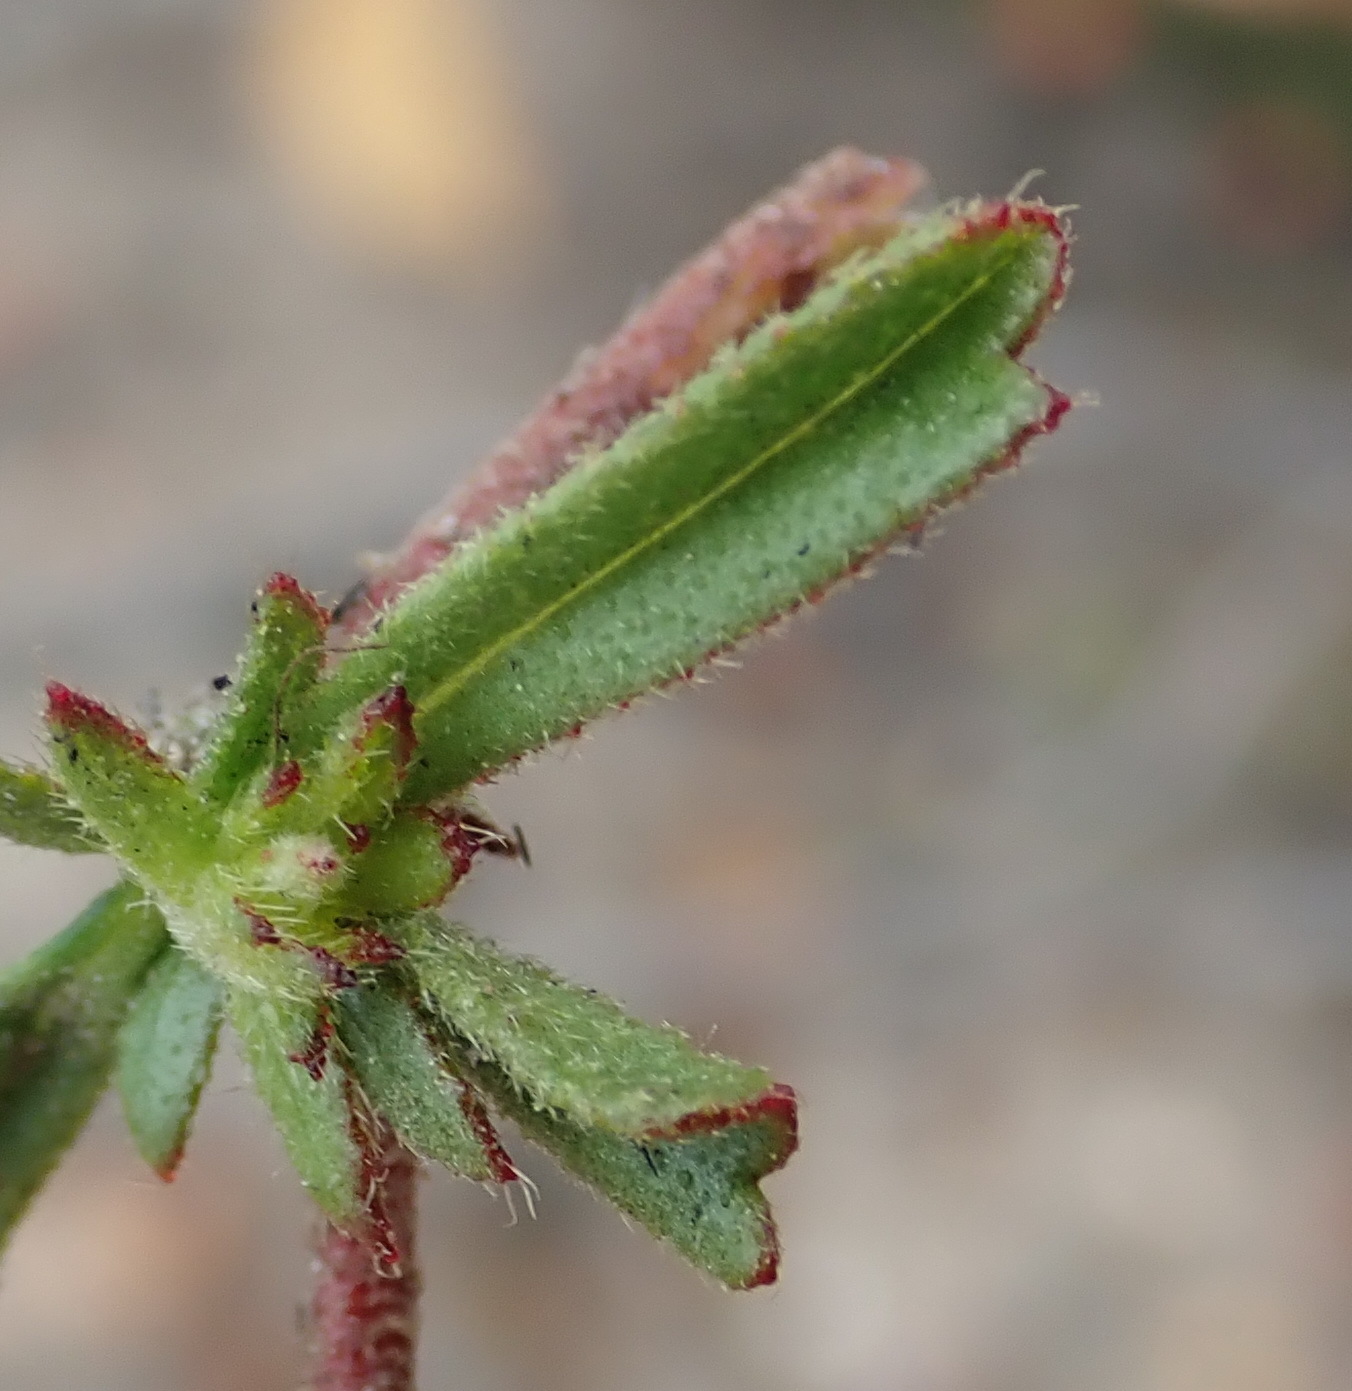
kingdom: Plantae
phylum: Tracheophyta
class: Magnoliopsida
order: Malvales
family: Malvaceae
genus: Hermannia
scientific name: Hermannia angularis
